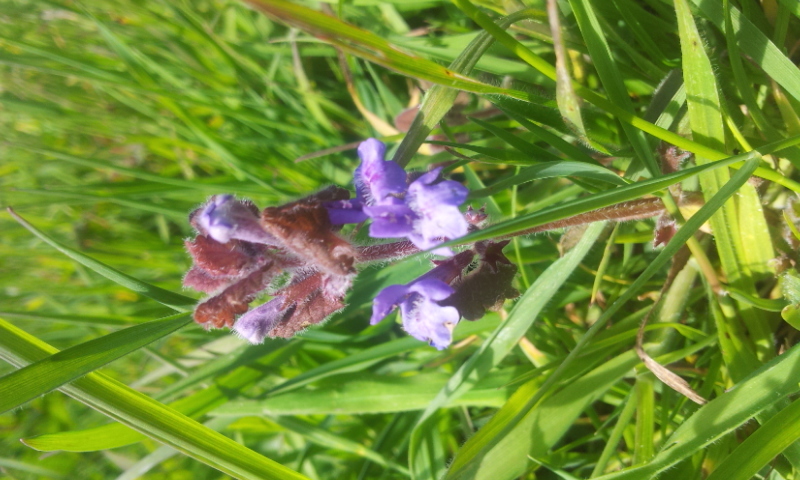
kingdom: Plantae
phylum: Tracheophyta
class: Magnoliopsida
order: Lamiales
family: Lamiaceae
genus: Glechoma
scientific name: Glechoma hederacea
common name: Ground ivy
